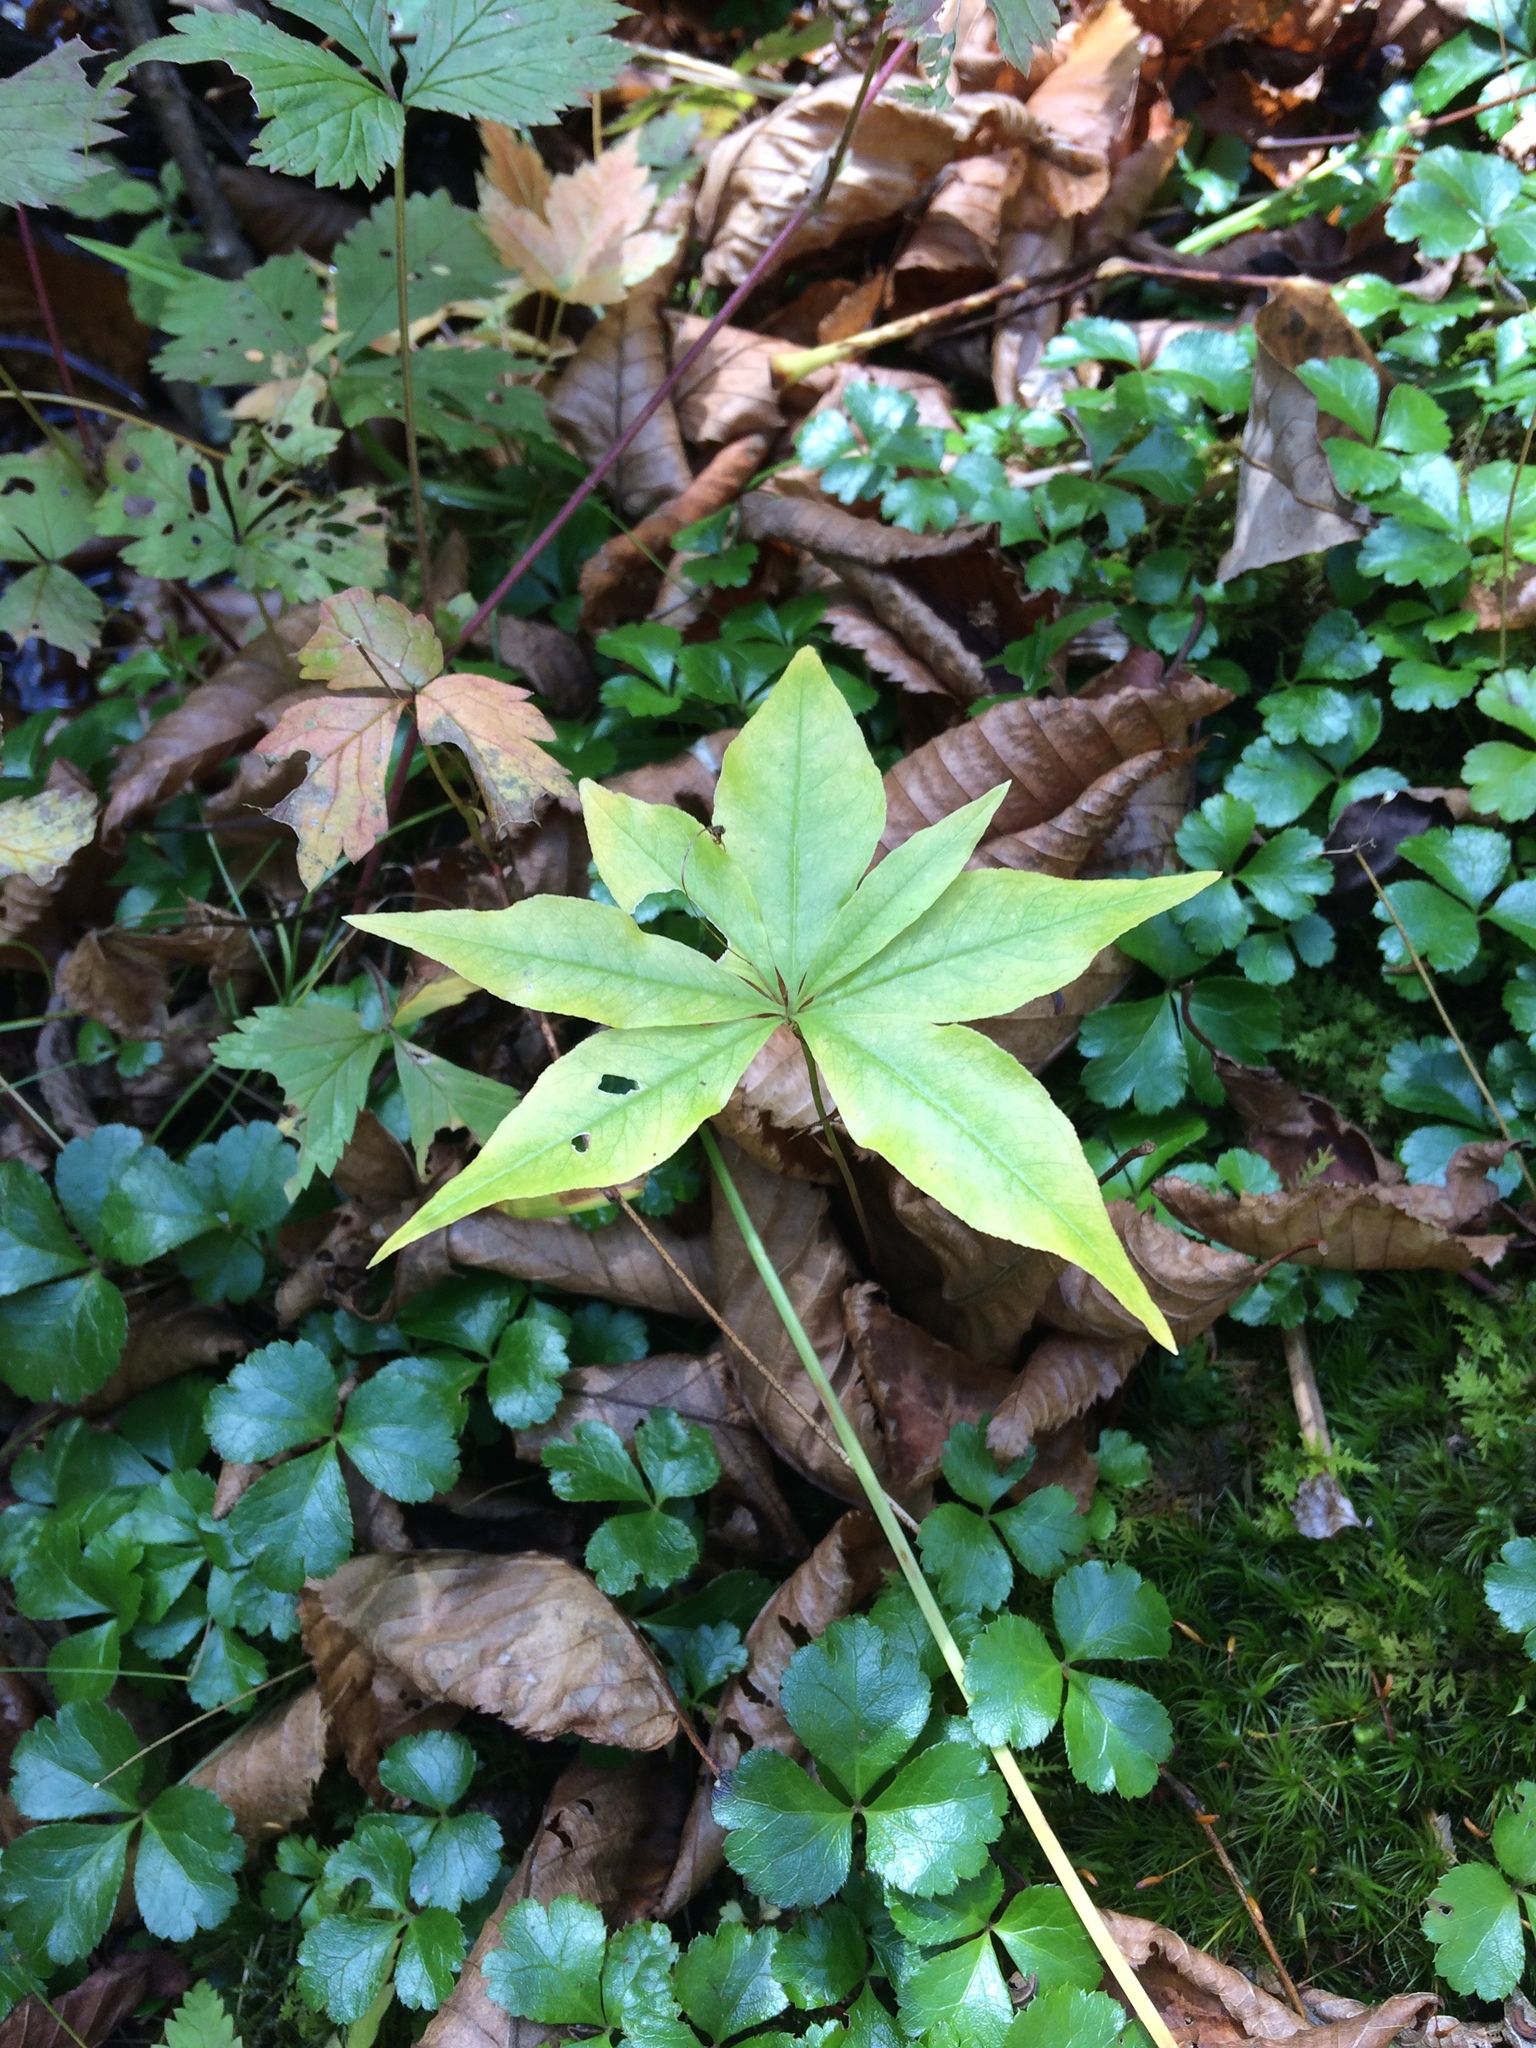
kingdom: Plantae
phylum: Tracheophyta
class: Magnoliopsida
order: Ericales
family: Primulaceae
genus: Lysimachia
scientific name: Lysimachia borealis
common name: American starflower
